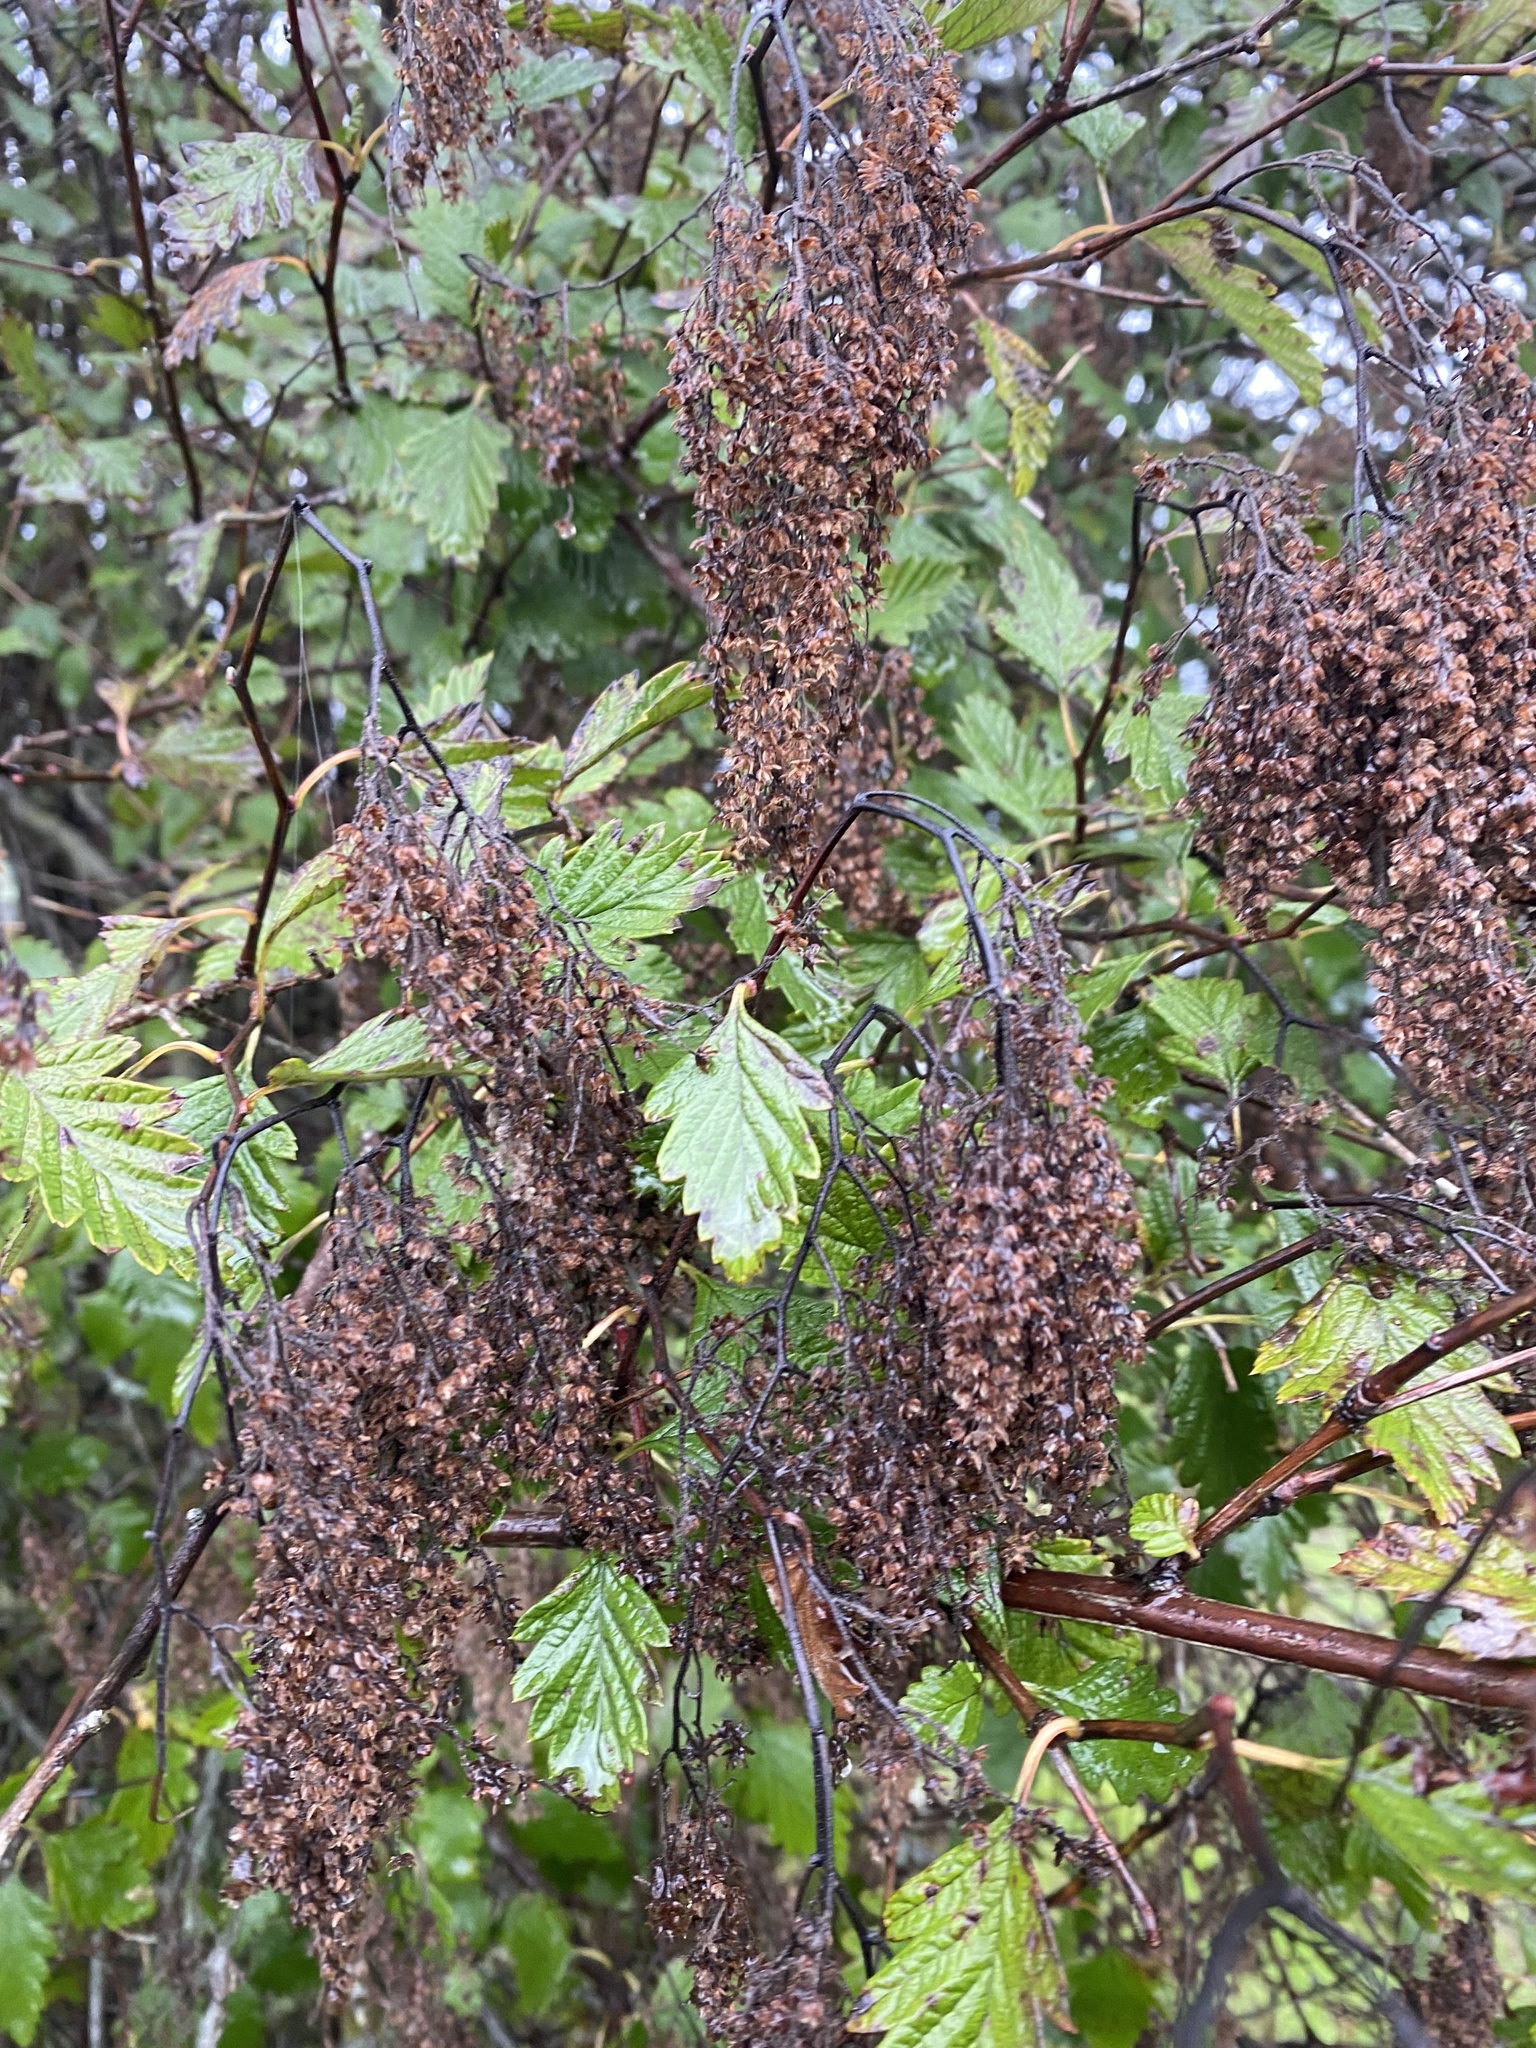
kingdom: Plantae
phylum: Tracheophyta
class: Magnoliopsida
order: Rosales
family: Rosaceae
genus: Holodiscus
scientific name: Holodiscus discolor
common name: Oceanspray
